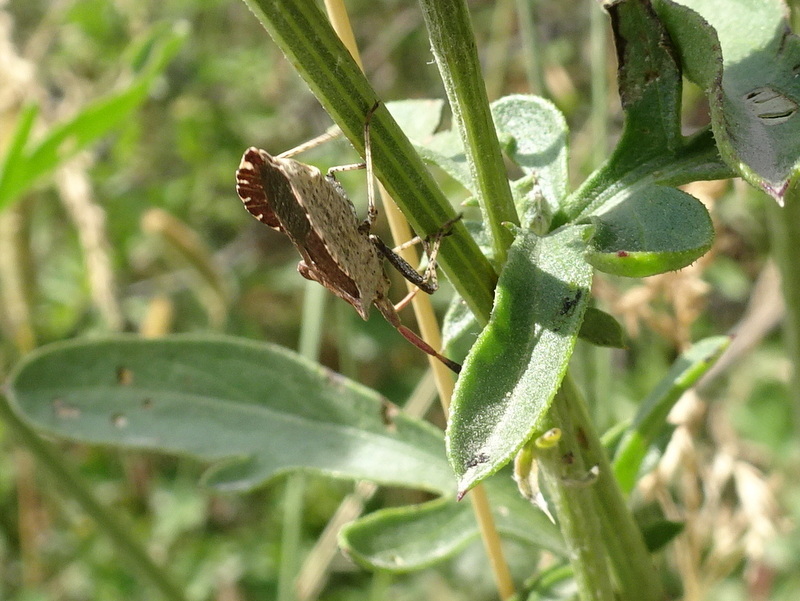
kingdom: Animalia
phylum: Arthropoda
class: Insecta
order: Hemiptera
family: Coreidae
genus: Enoplops
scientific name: Enoplops scapha
